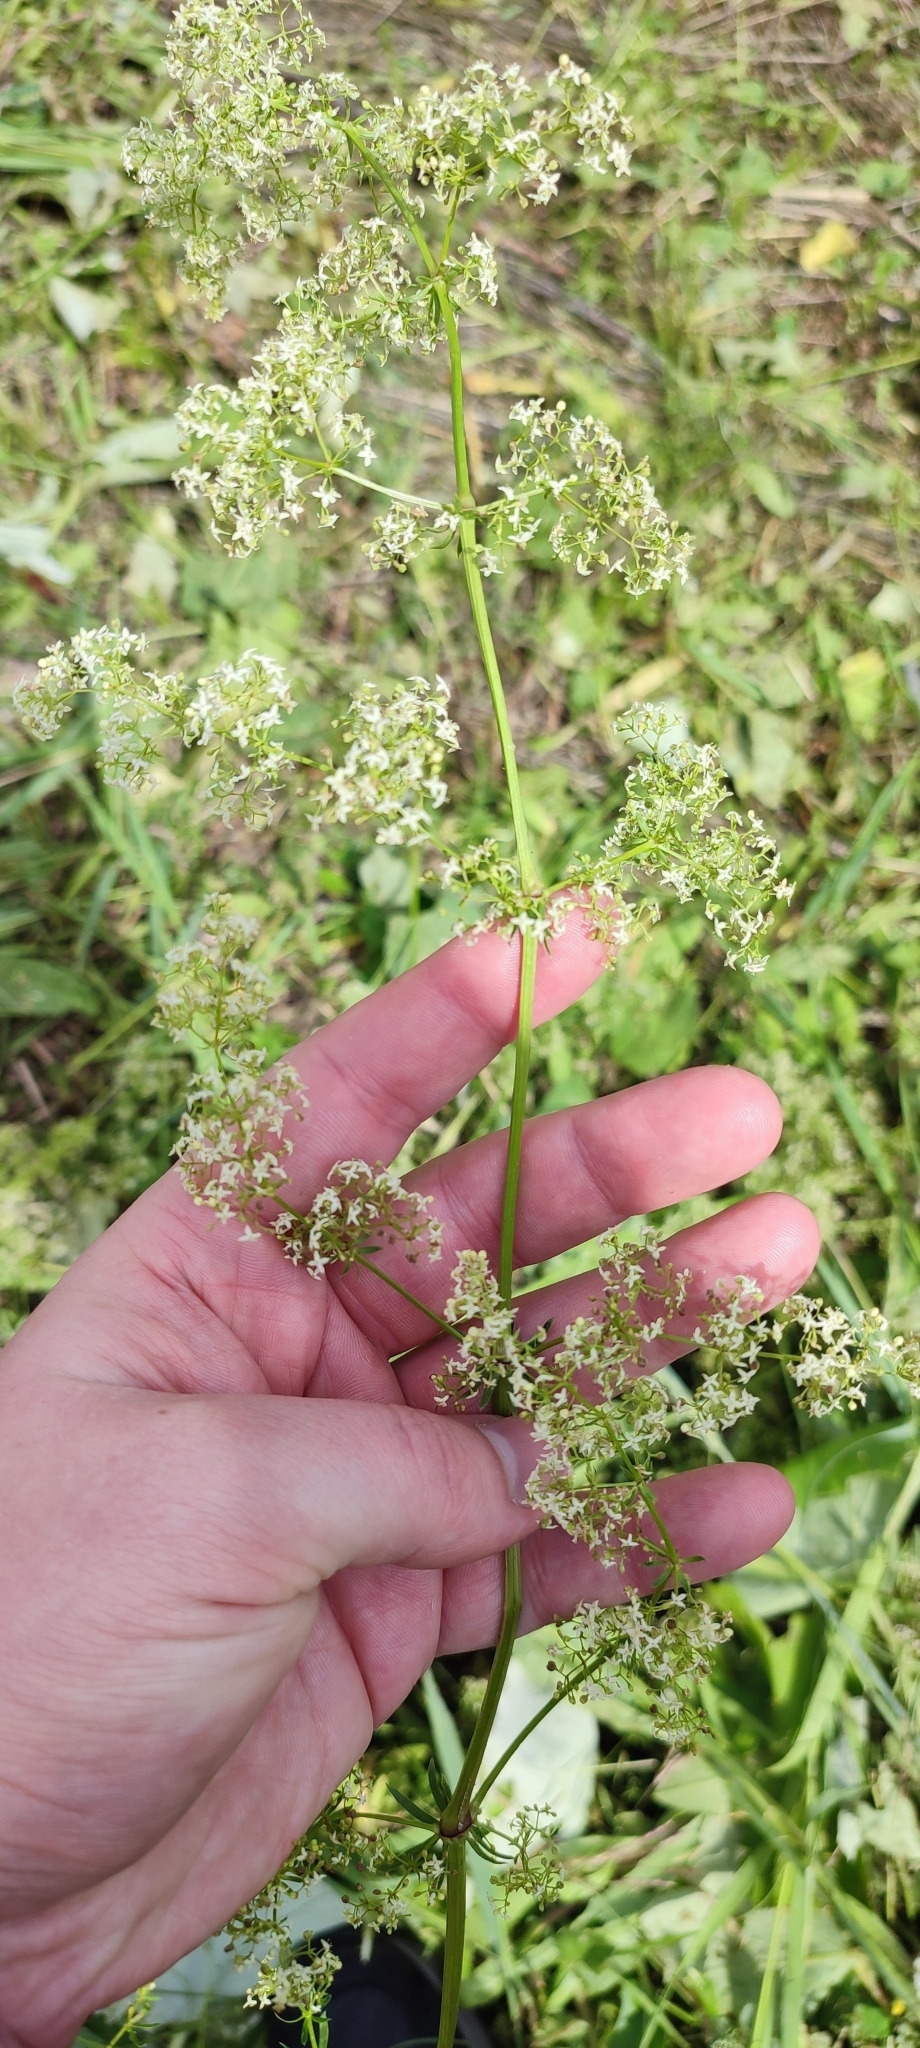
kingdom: Plantae
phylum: Tracheophyta
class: Magnoliopsida
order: Gentianales
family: Rubiaceae
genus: Galium
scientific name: Galium mollugo
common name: Hedge bedstraw
